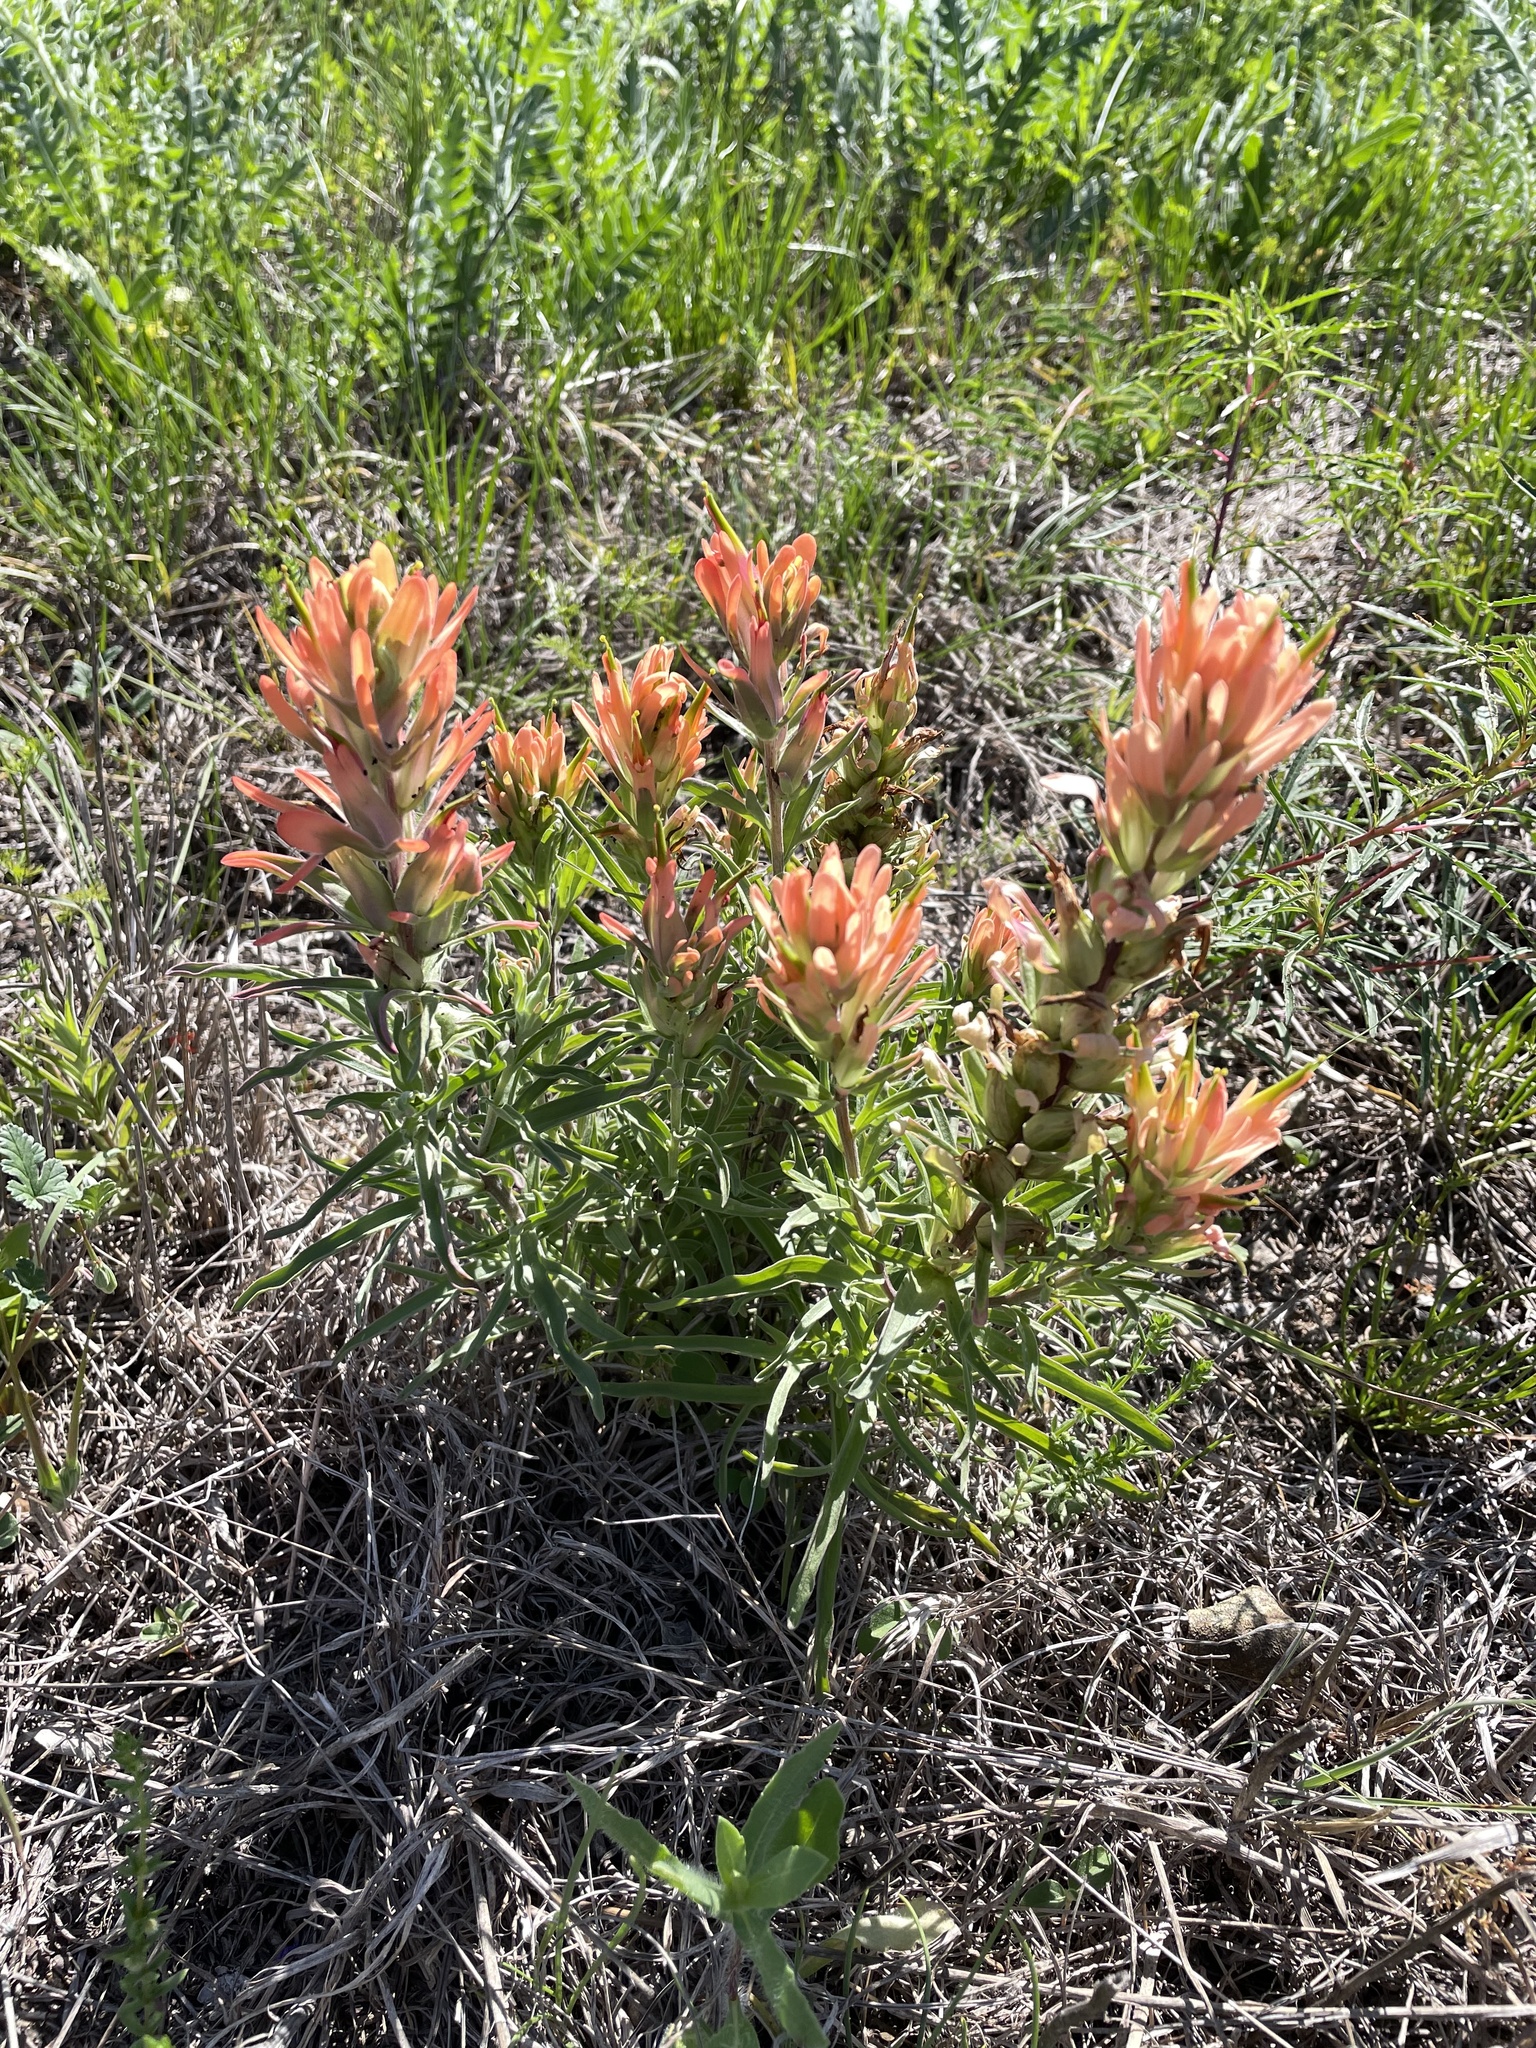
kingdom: Plantae
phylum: Tracheophyta
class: Magnoliopsida
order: Lamiales
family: Orobanchaceae
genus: Castilleja
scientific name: Castilleja lindheimeri
